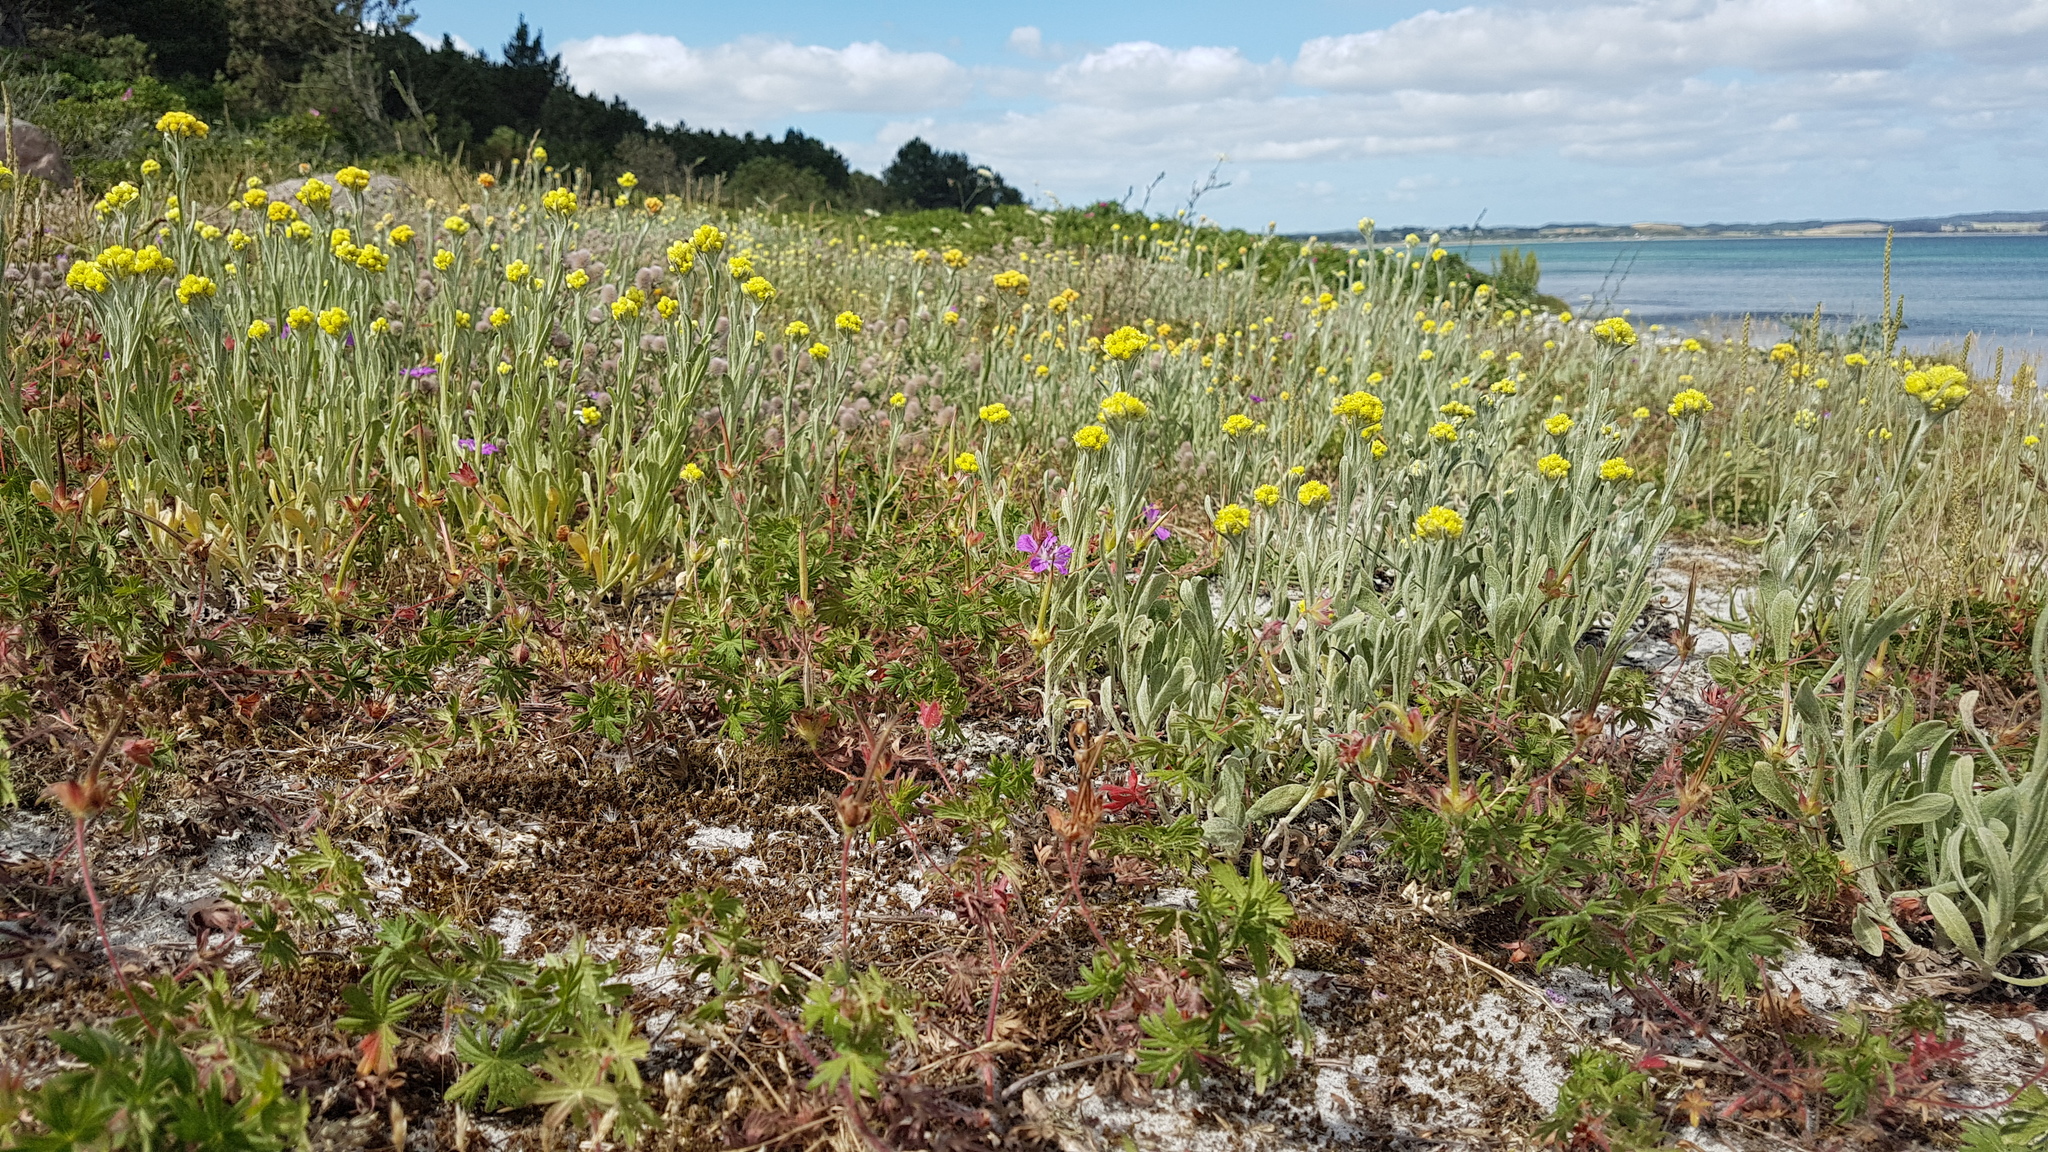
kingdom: Plantae
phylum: Tracheophyta
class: Magnoliopsida
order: Asterales
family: Asteraceae
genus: Helichrysum
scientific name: Helichrysum arenarium
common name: Strawflower
